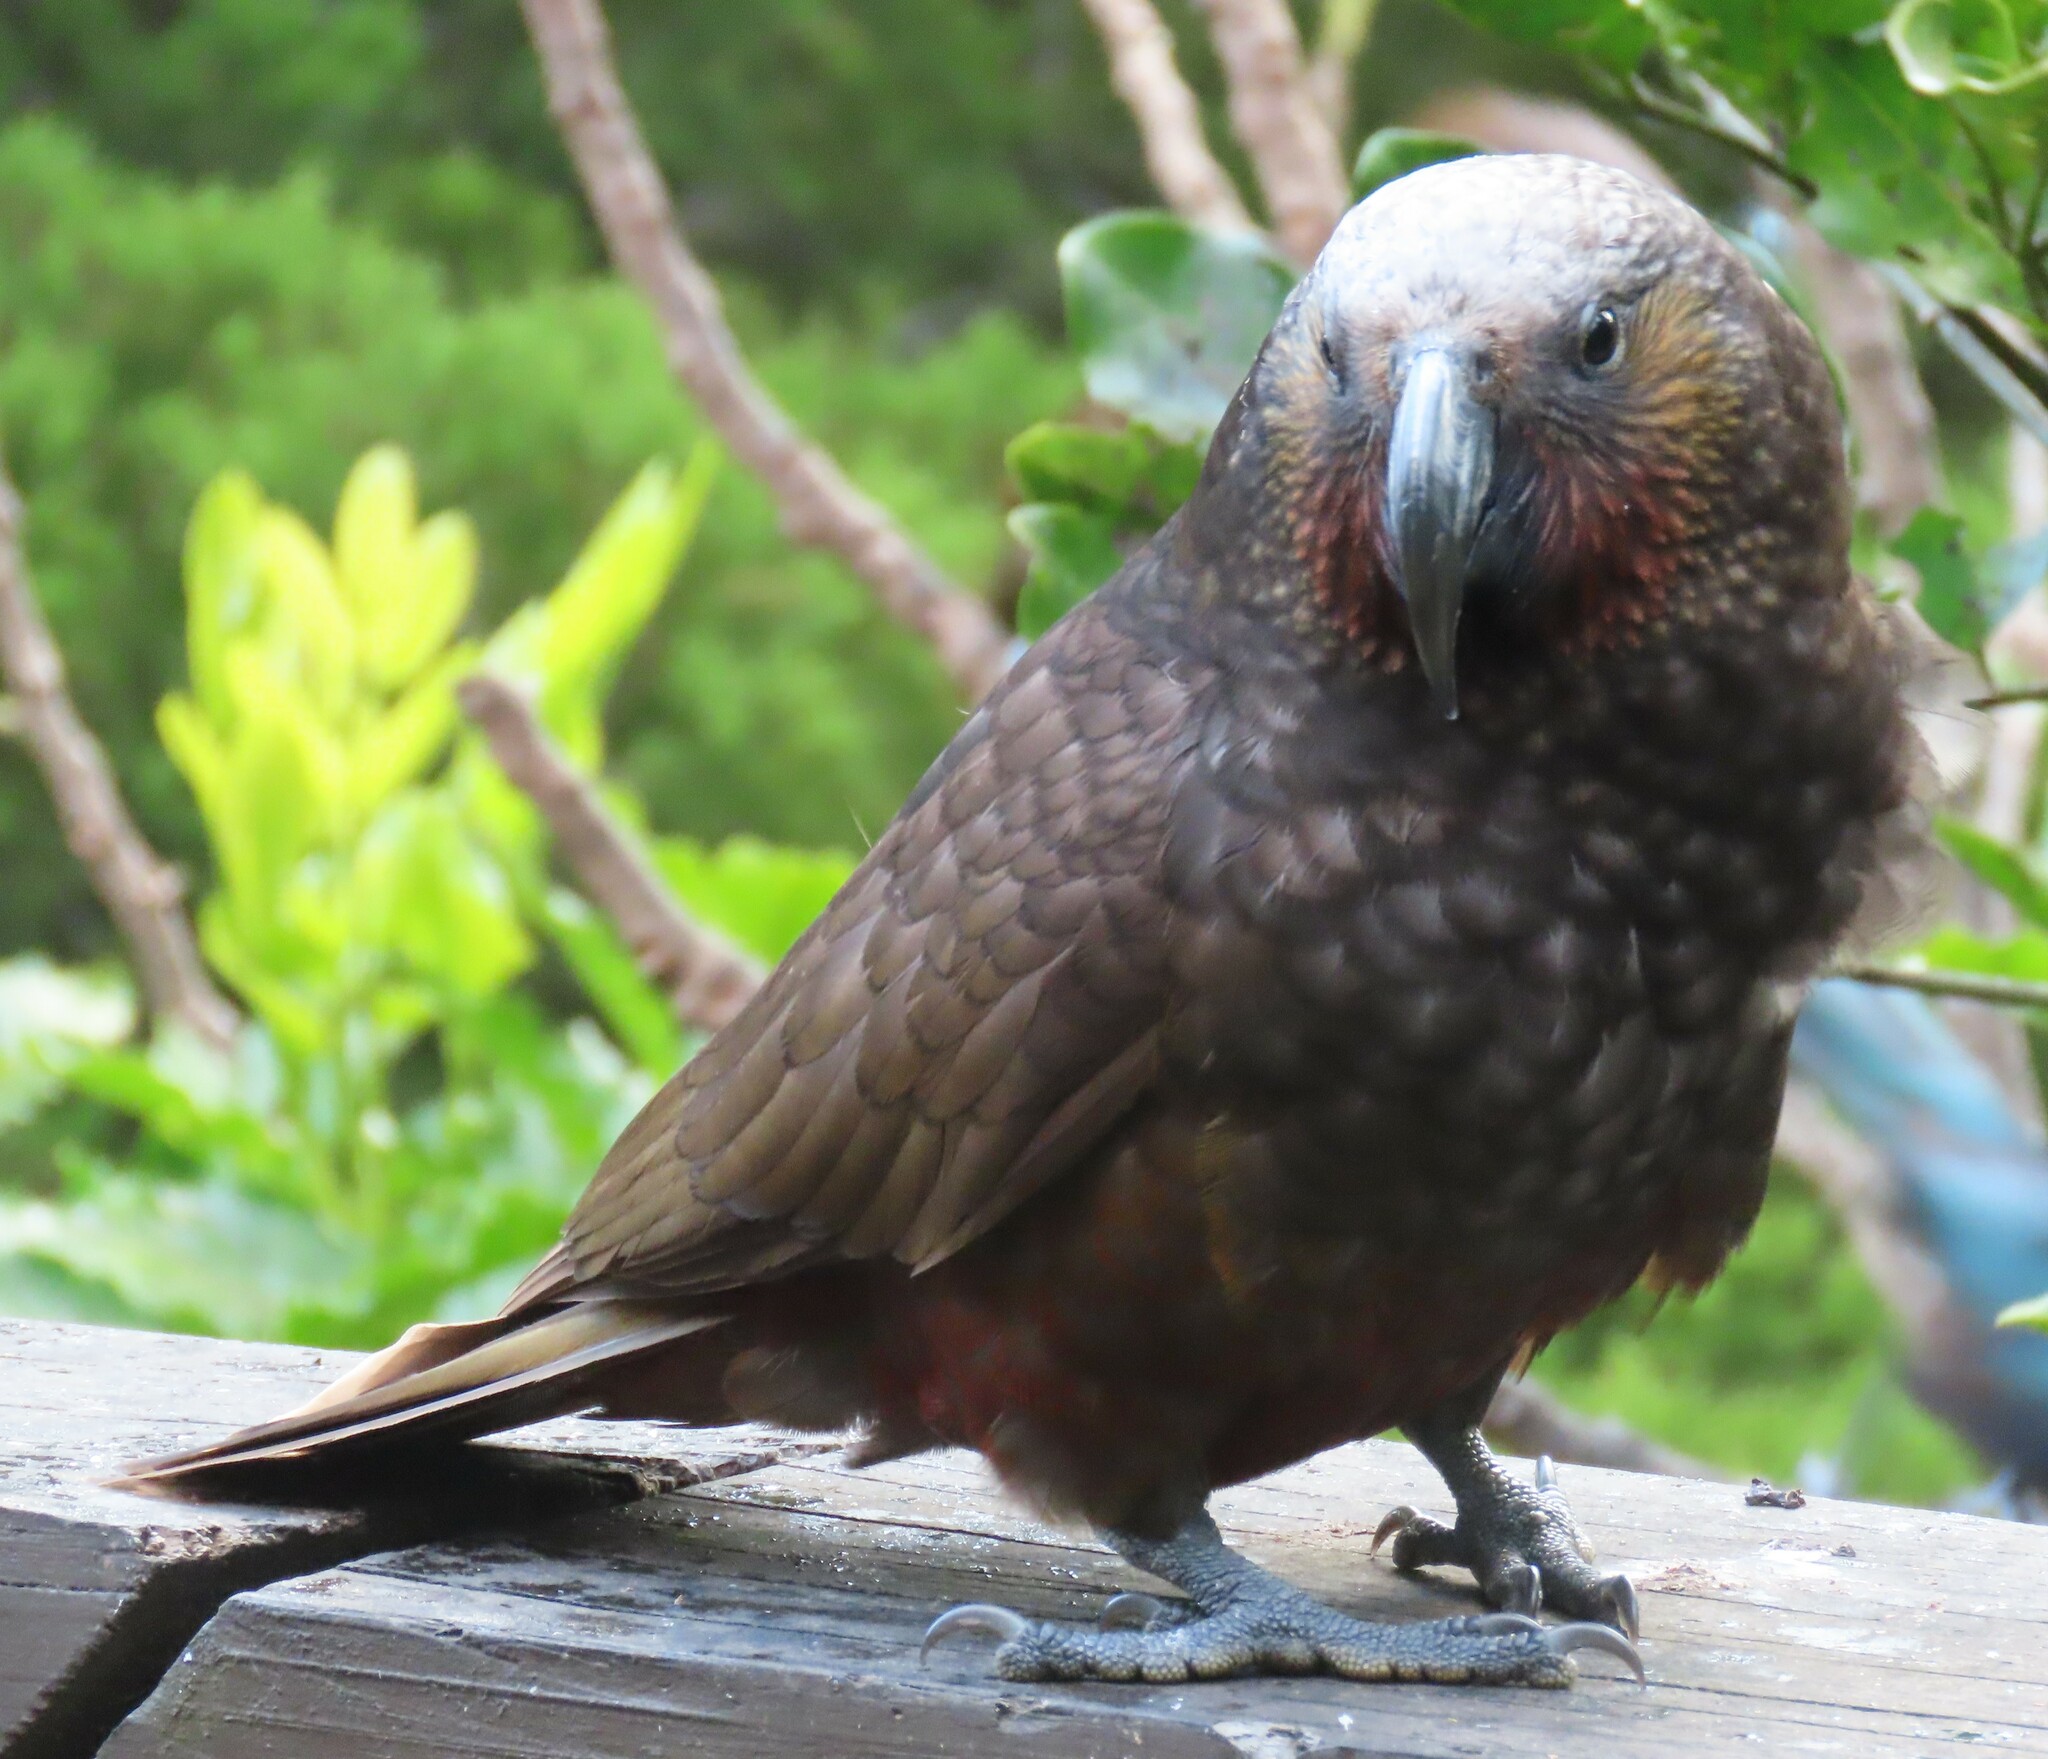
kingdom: Animalia
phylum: Chordata
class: Aves
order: Psittaciformes
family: Psittacidae
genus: Nestor
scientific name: Nestor meridionalis
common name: New zealand kaka
